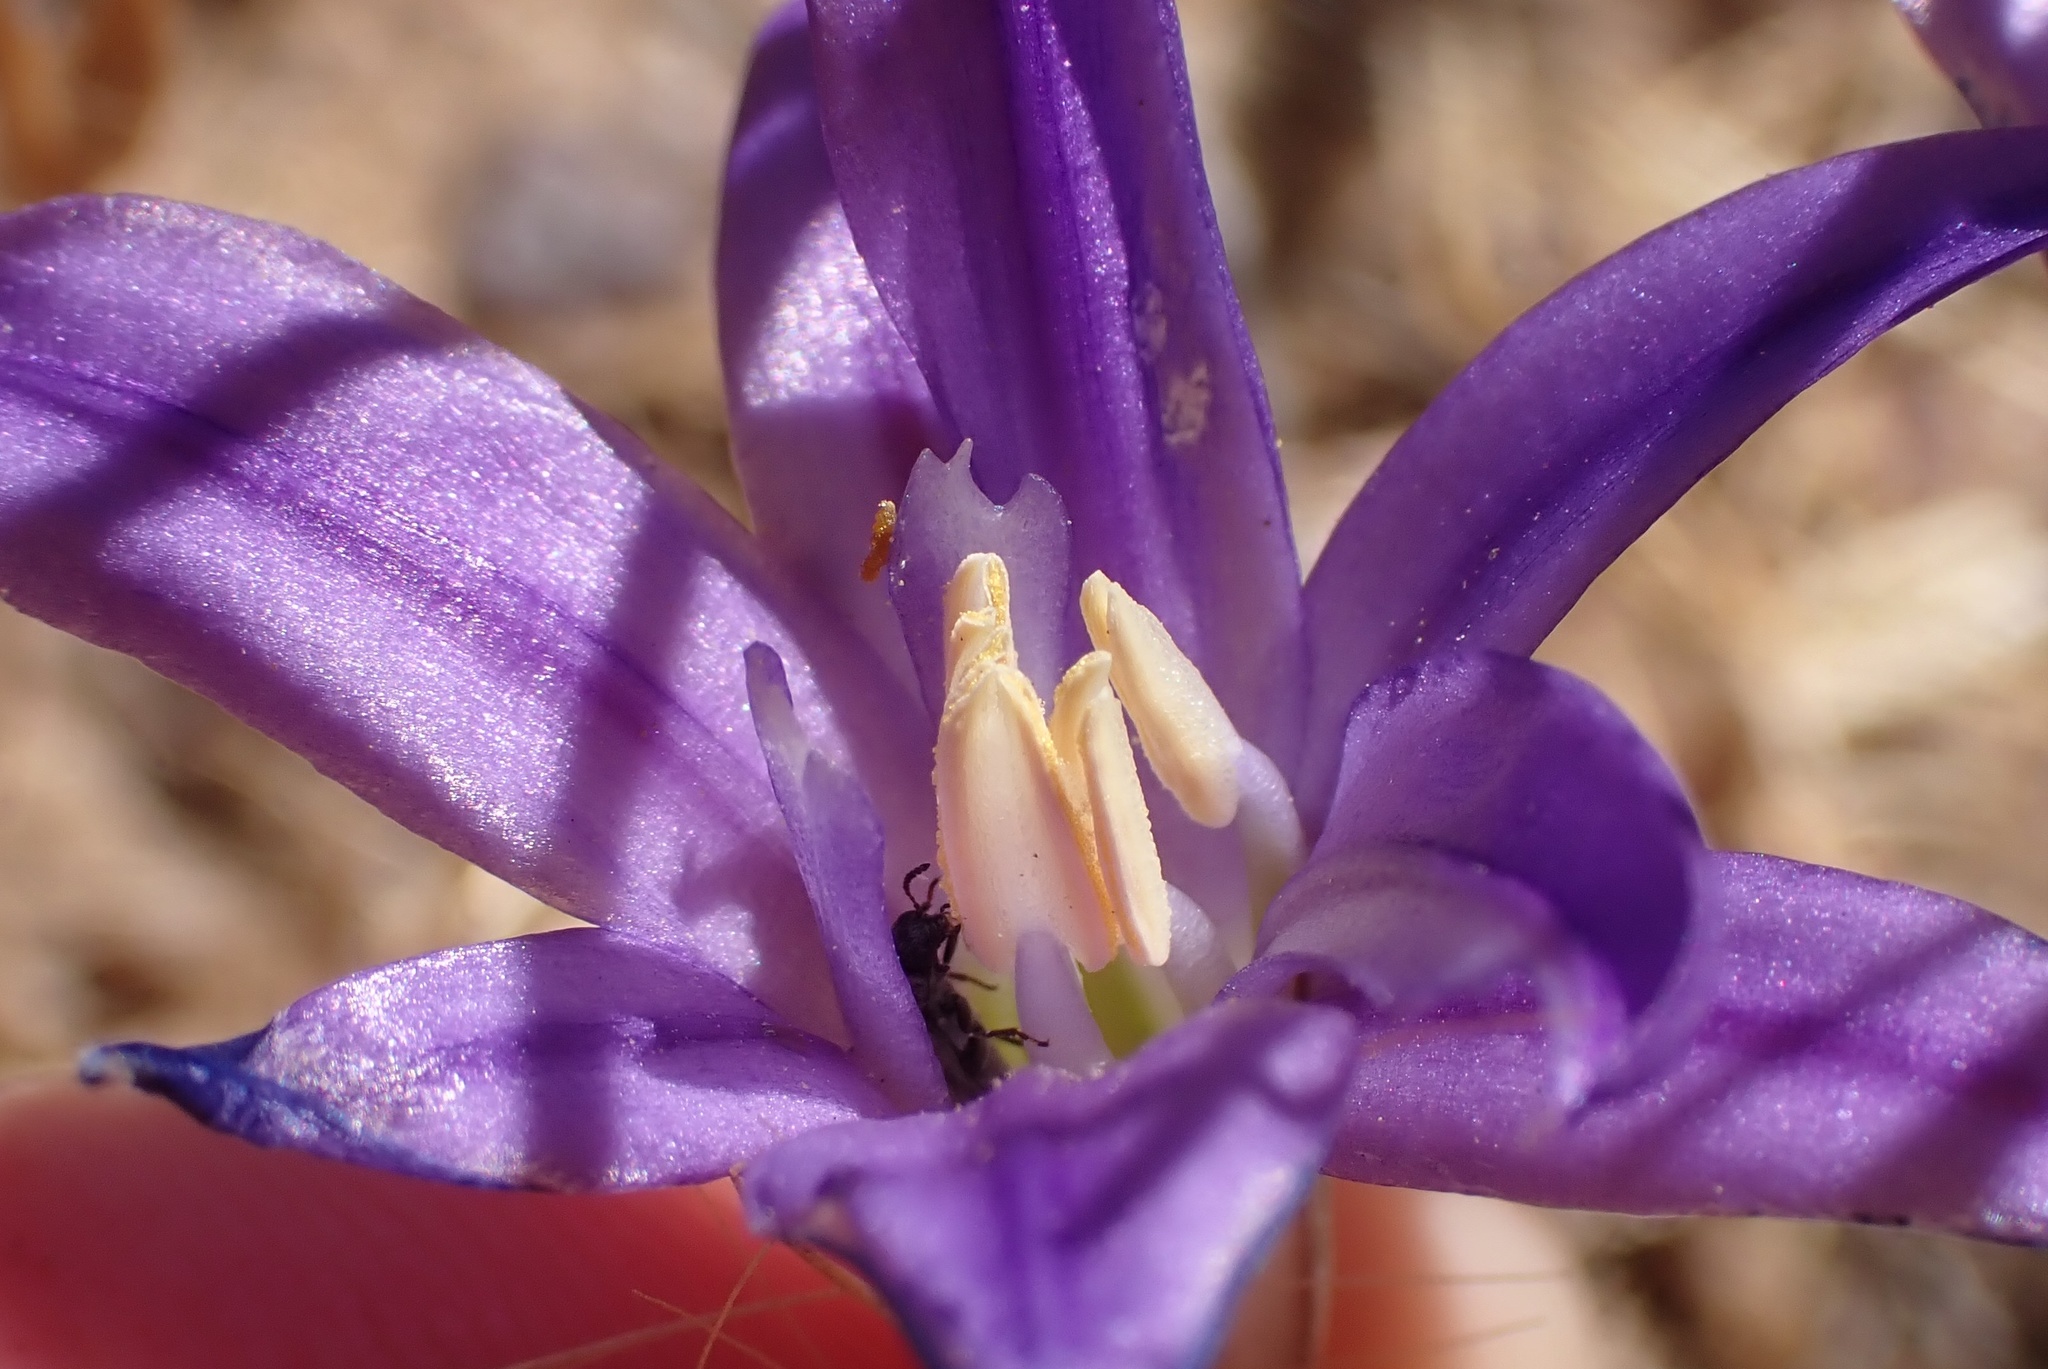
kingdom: Plantae
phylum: Tracheophyta
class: Liliopsida
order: Asparagales
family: Asparagaceae
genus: Brodiaea
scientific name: Brodiaea terrestris
